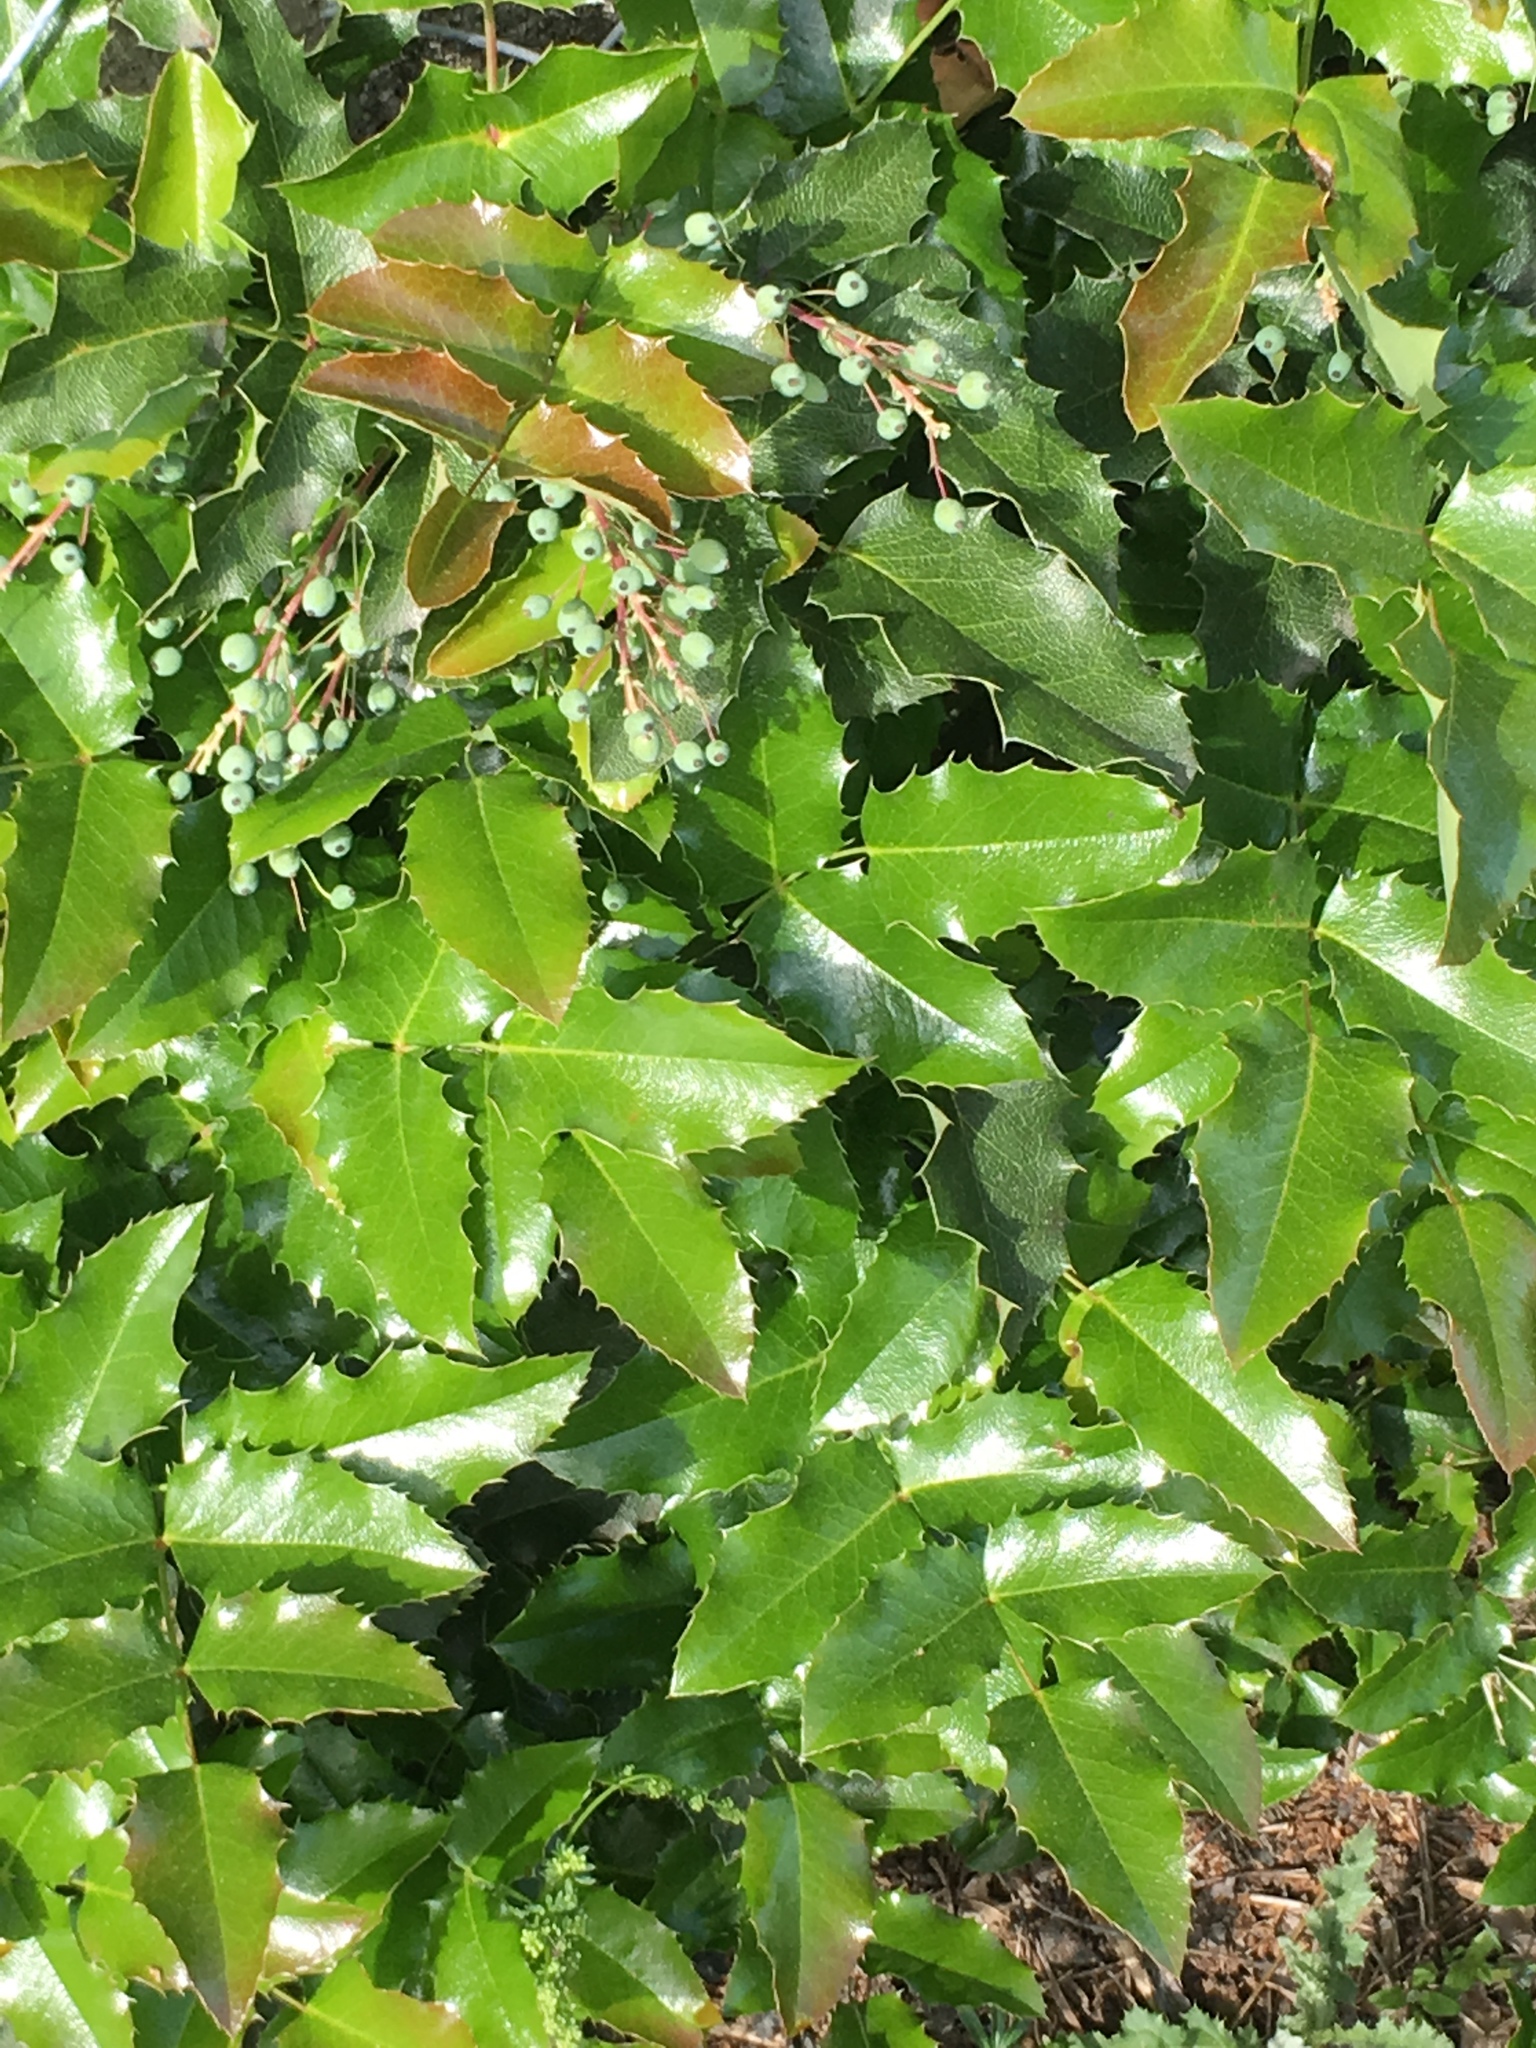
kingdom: Plantae
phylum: Tracheophyta
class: Magnoliopsida
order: Ranunculales
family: Berberidaceae
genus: Mahonia
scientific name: Mahonia aquifolium
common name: Oregon-grape
